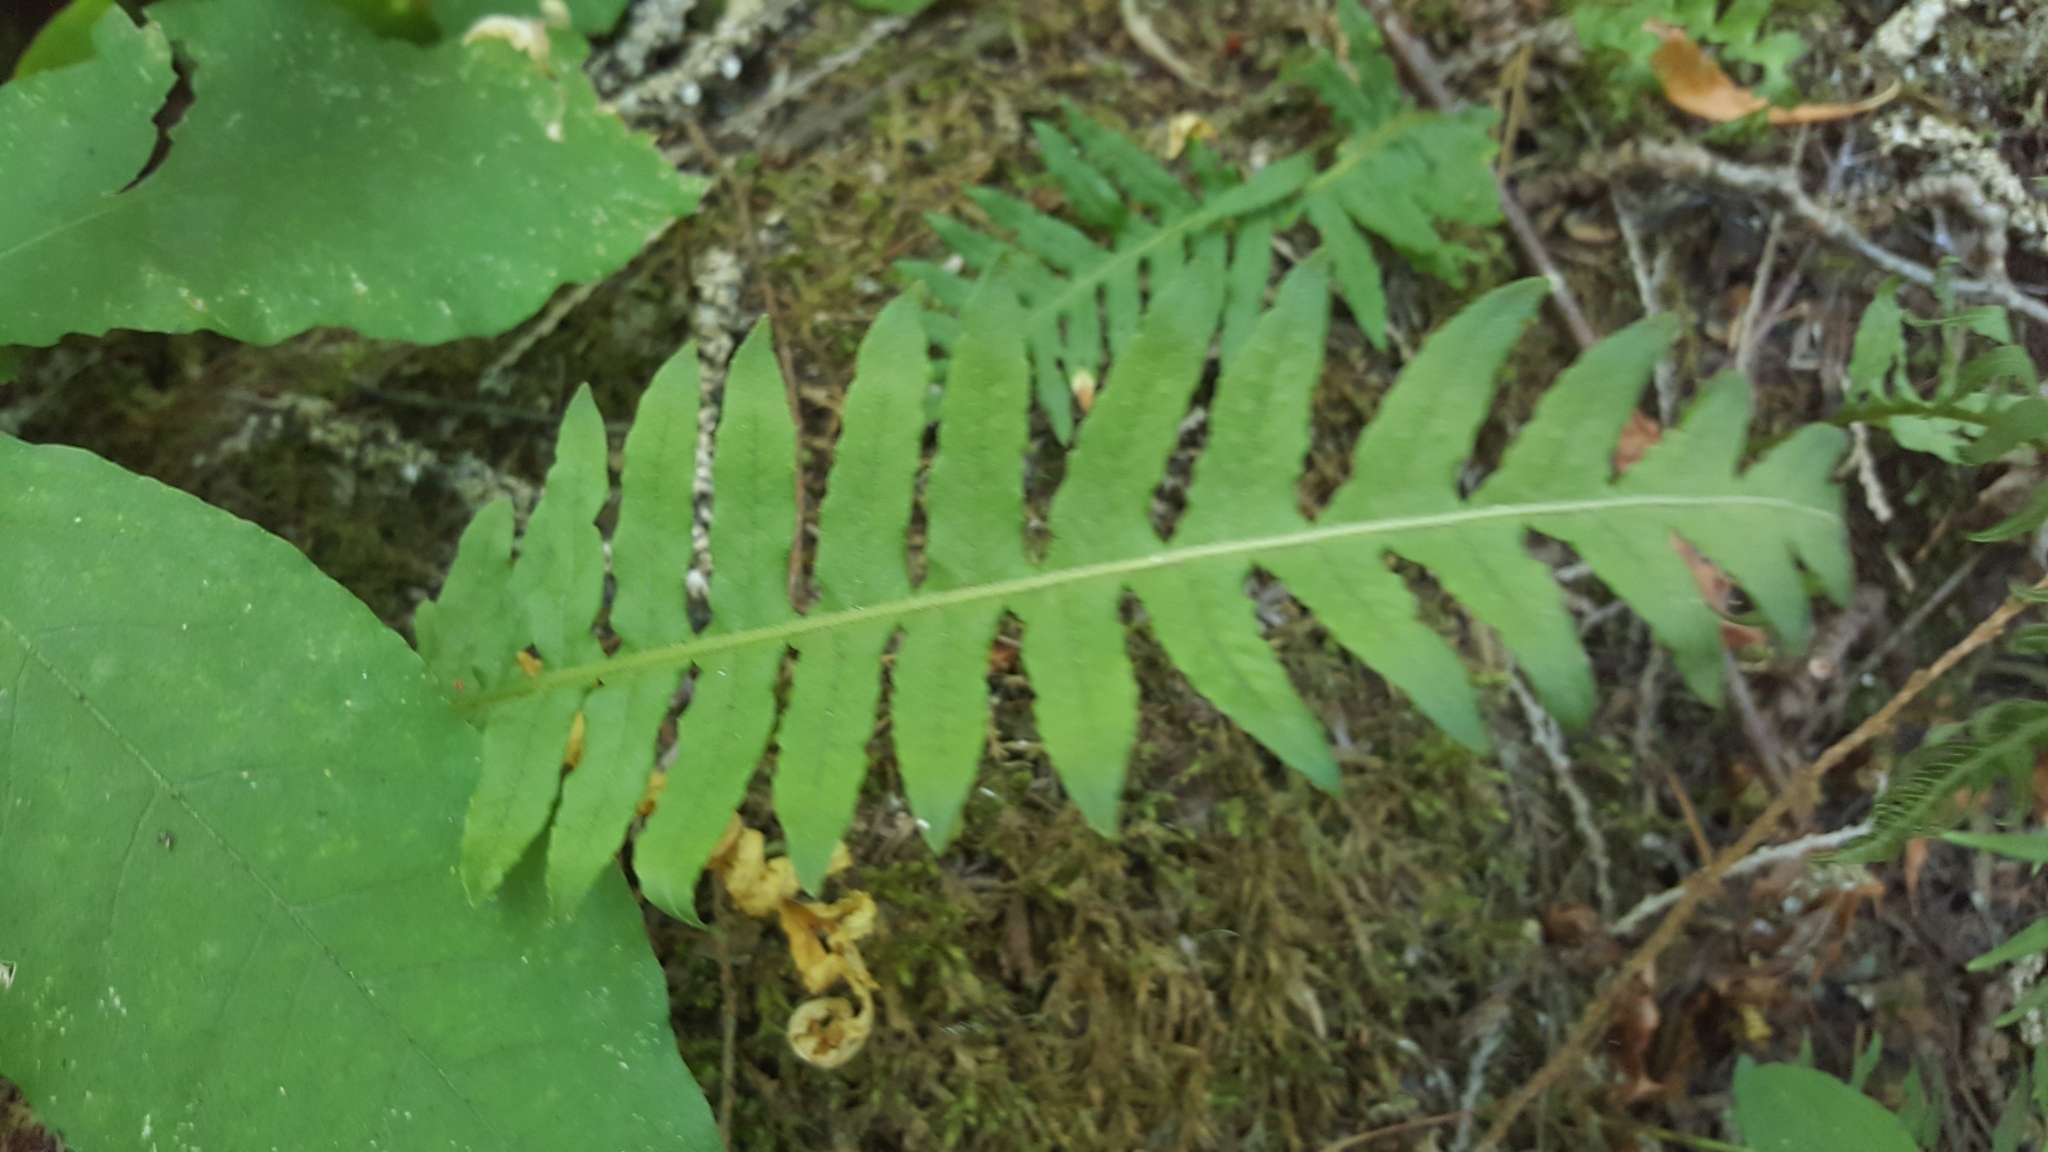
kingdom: Plantae
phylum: Tracheophyta
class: Polypodiopsida
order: Polypodiales
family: Polypodiaceae
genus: Polypodium
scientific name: Polypodium glycyrrhiza
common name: Licorice fern
